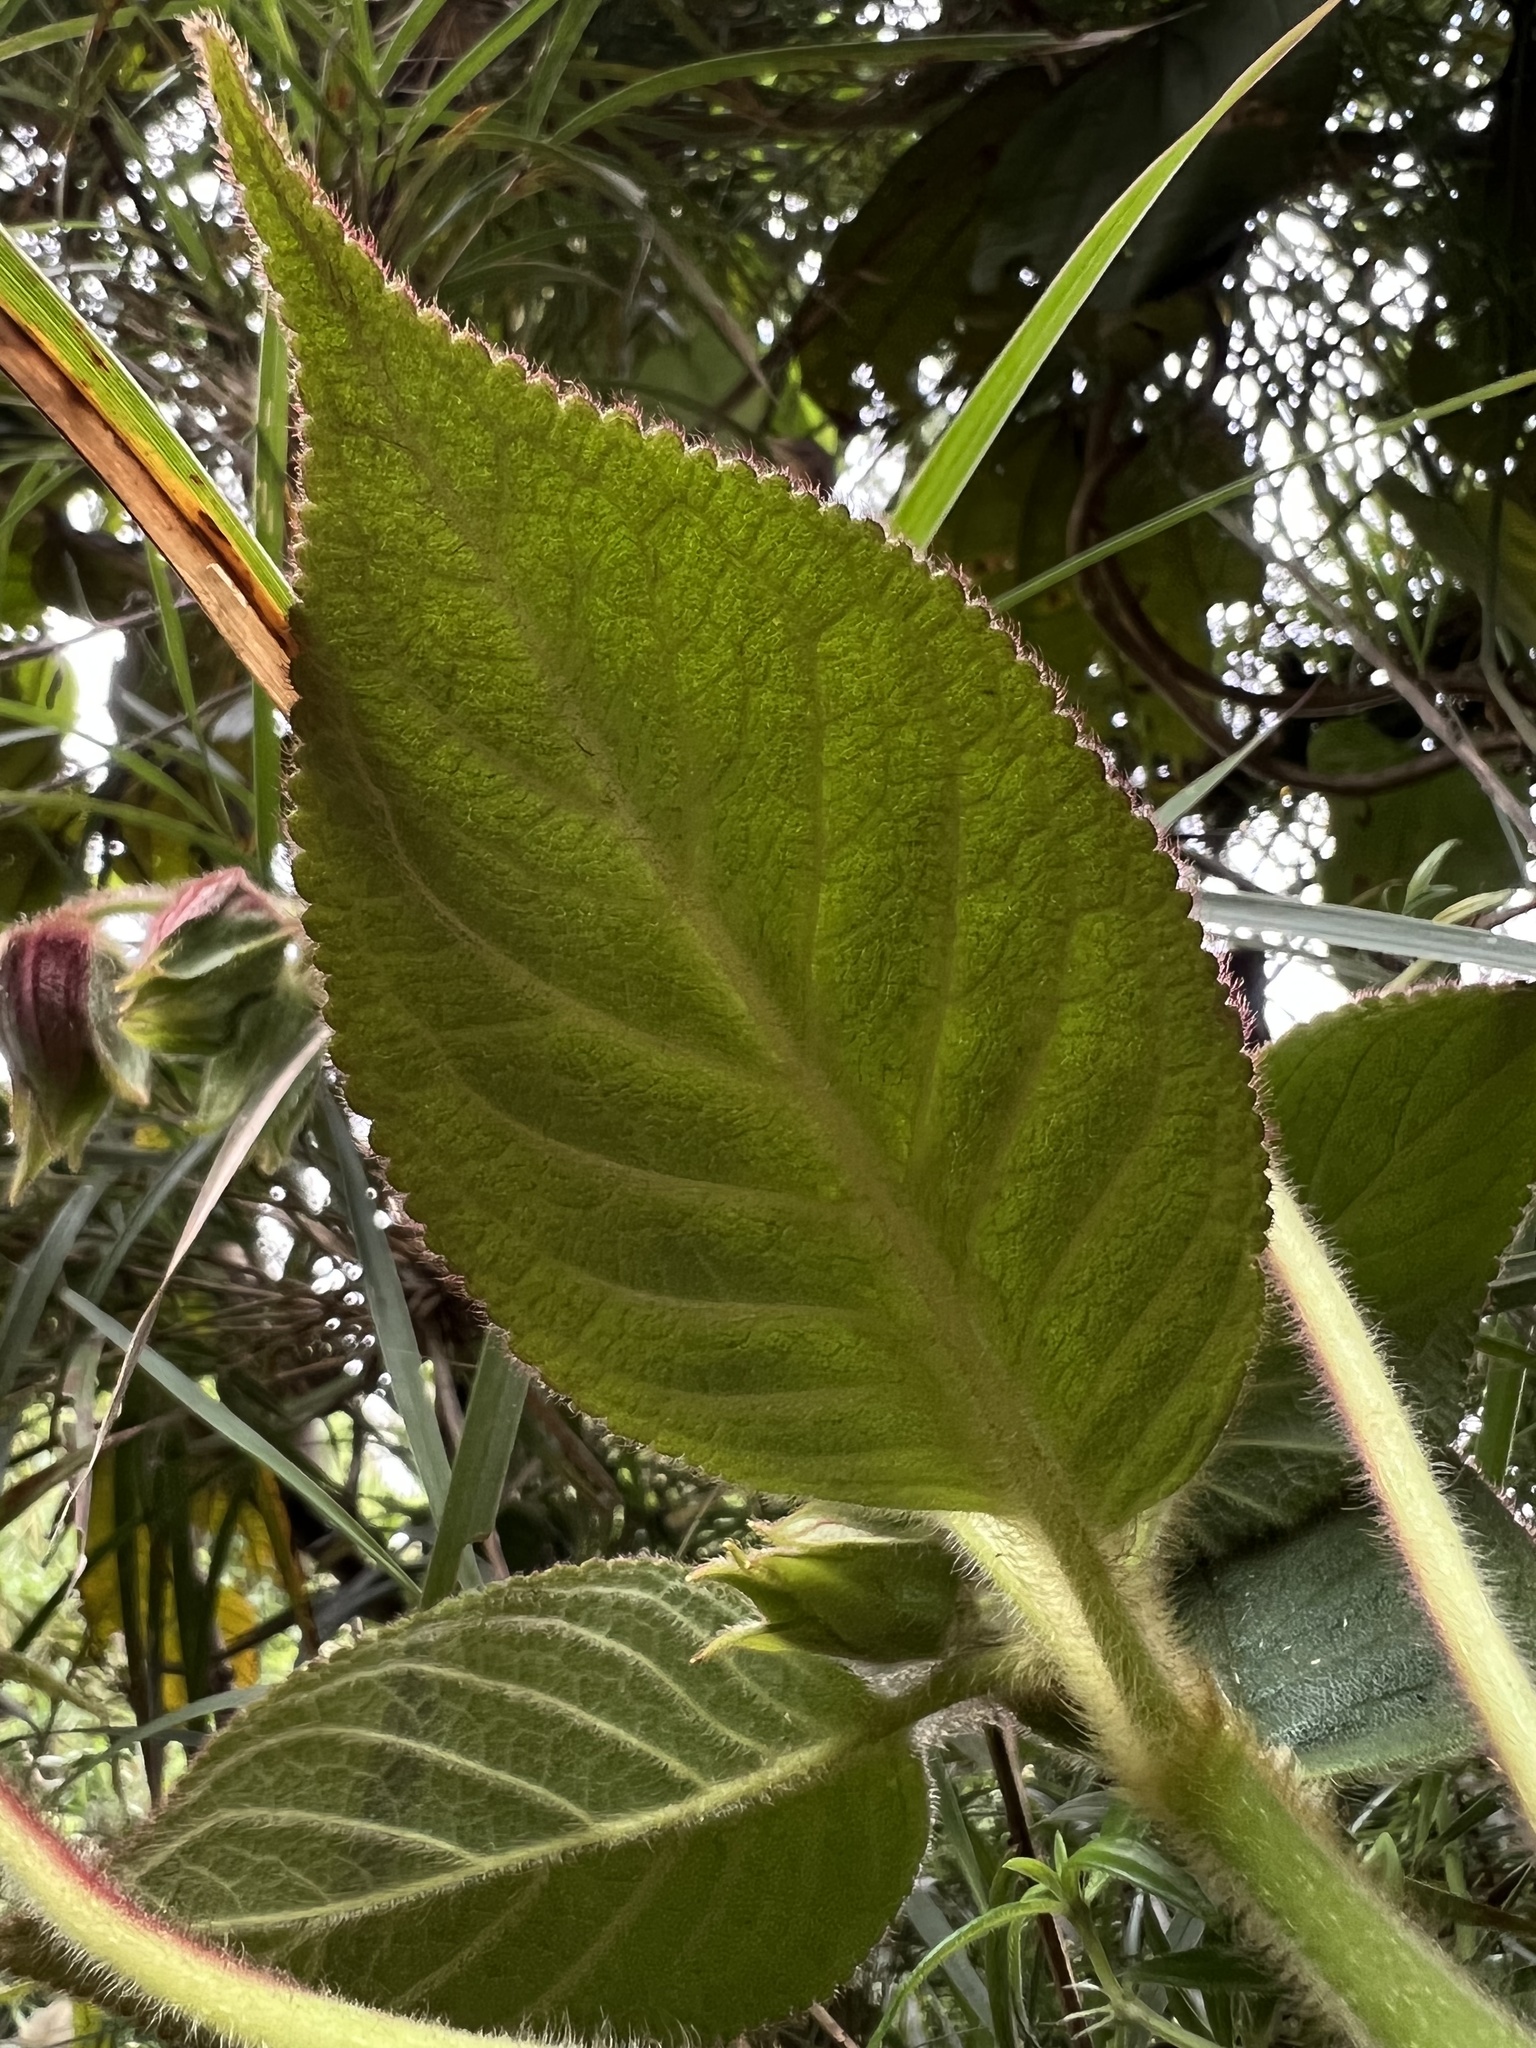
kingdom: Plantae
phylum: Tracheophyta
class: Magnoliopsida
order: Lamiales
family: Gesneriaceae
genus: Kohleria
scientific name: Kohleria tigridia
